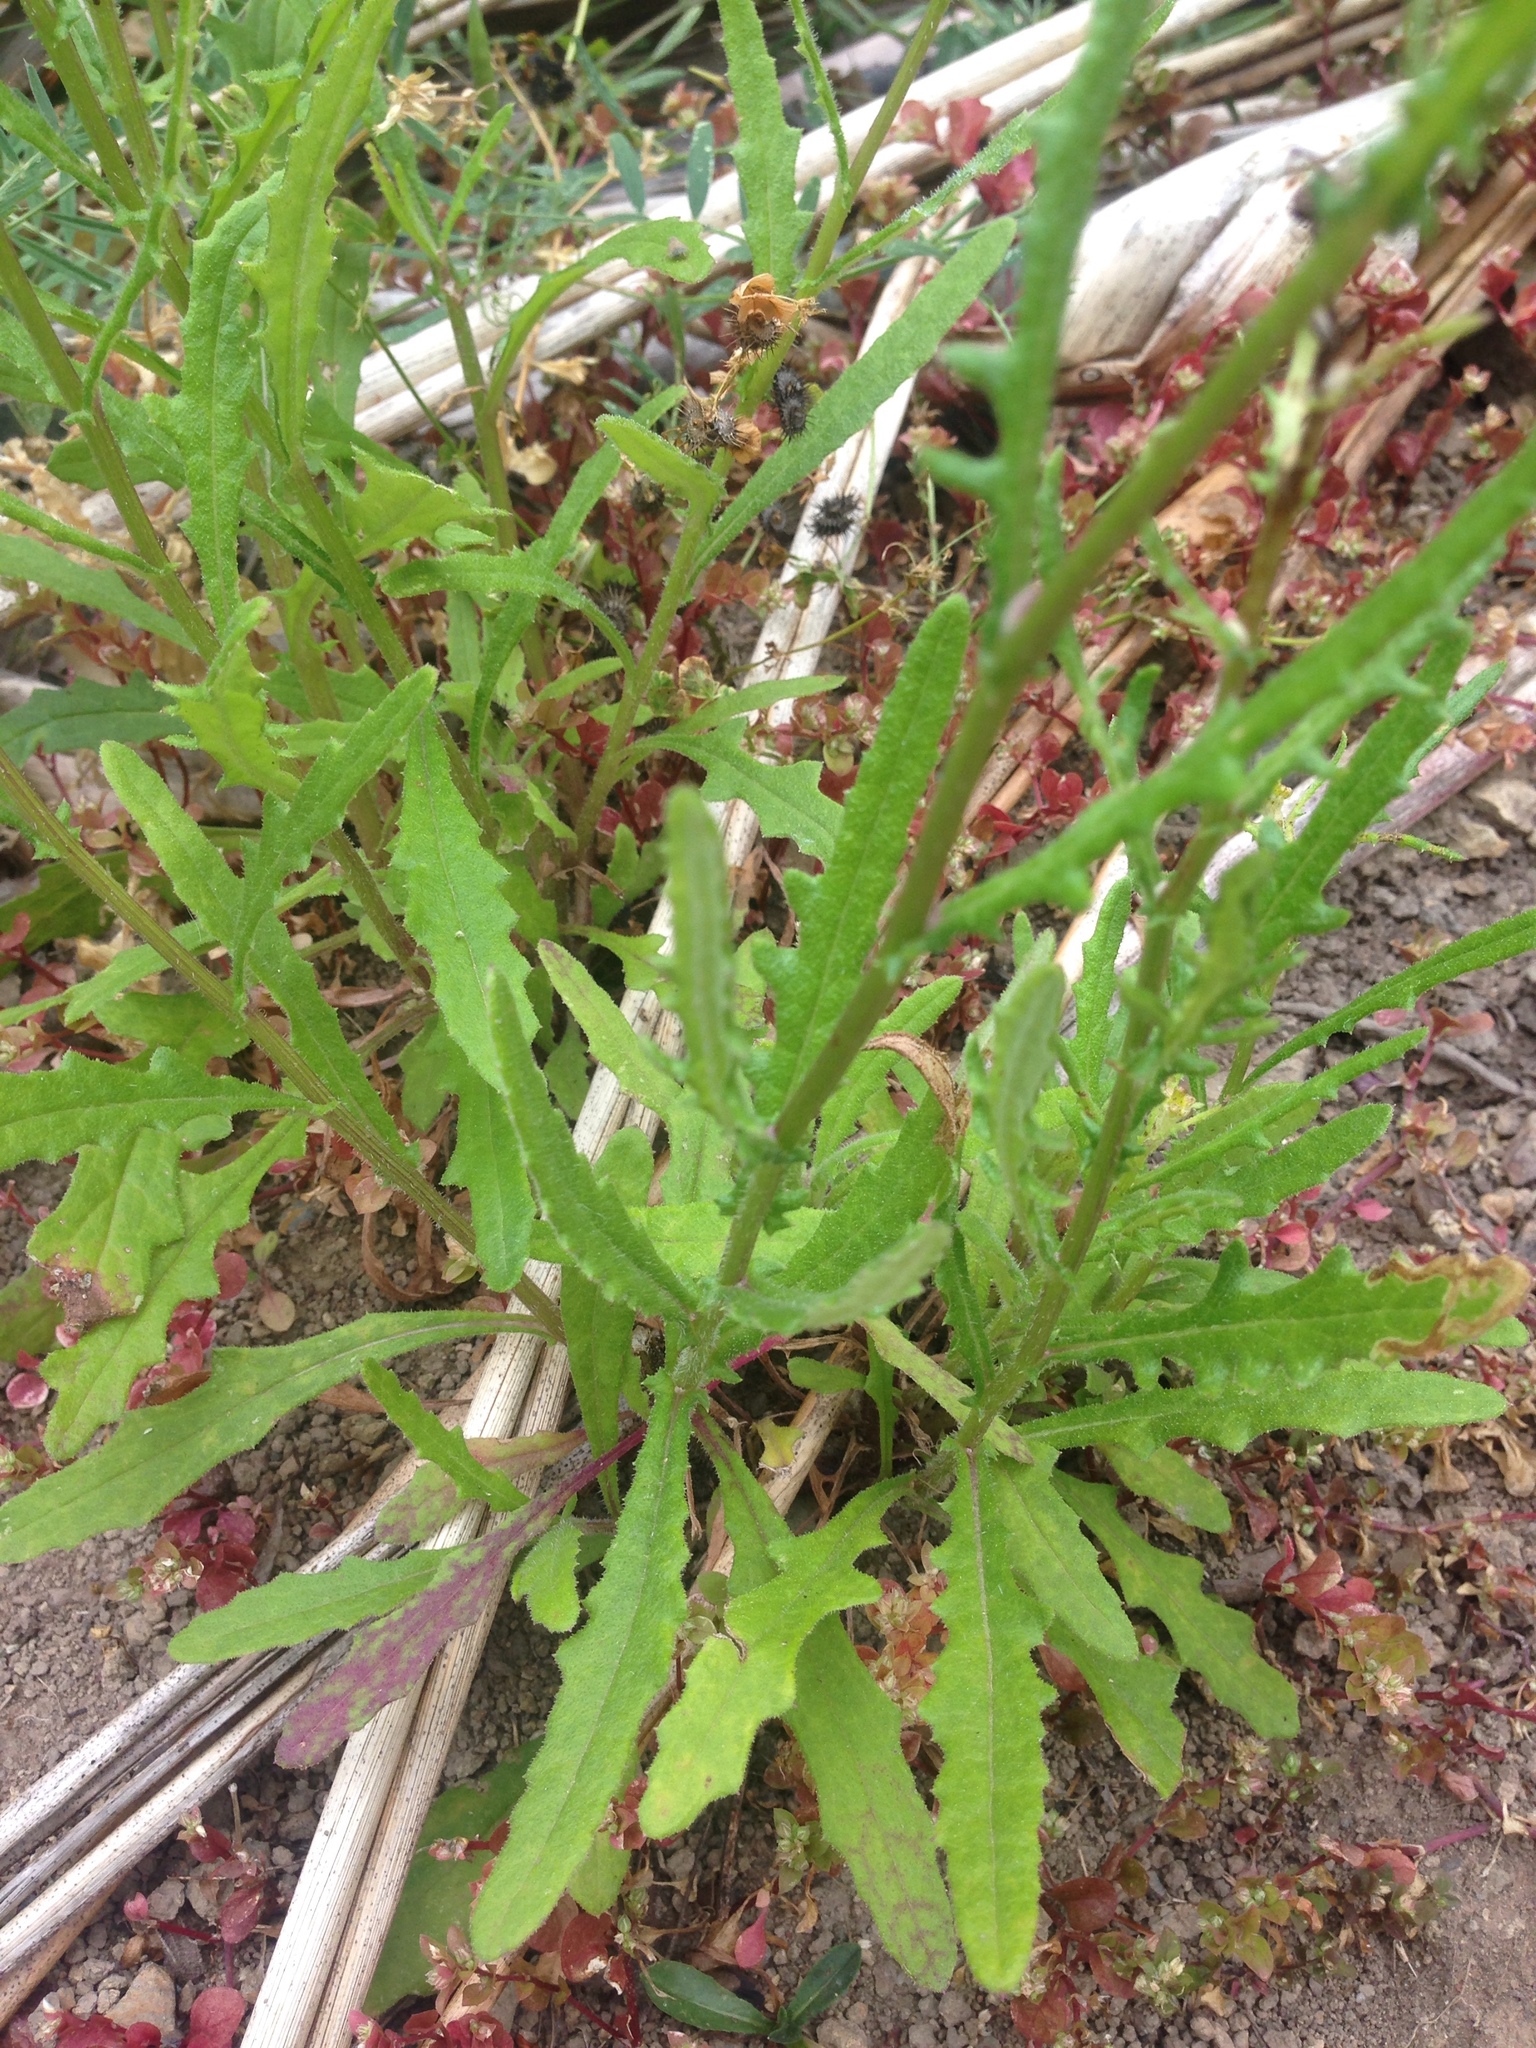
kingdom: Plantae
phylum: Tracheophyta
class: Magnoliopsida
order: Asterales
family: Asteraceae
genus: Senecio
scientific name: Senecio hispidulus
